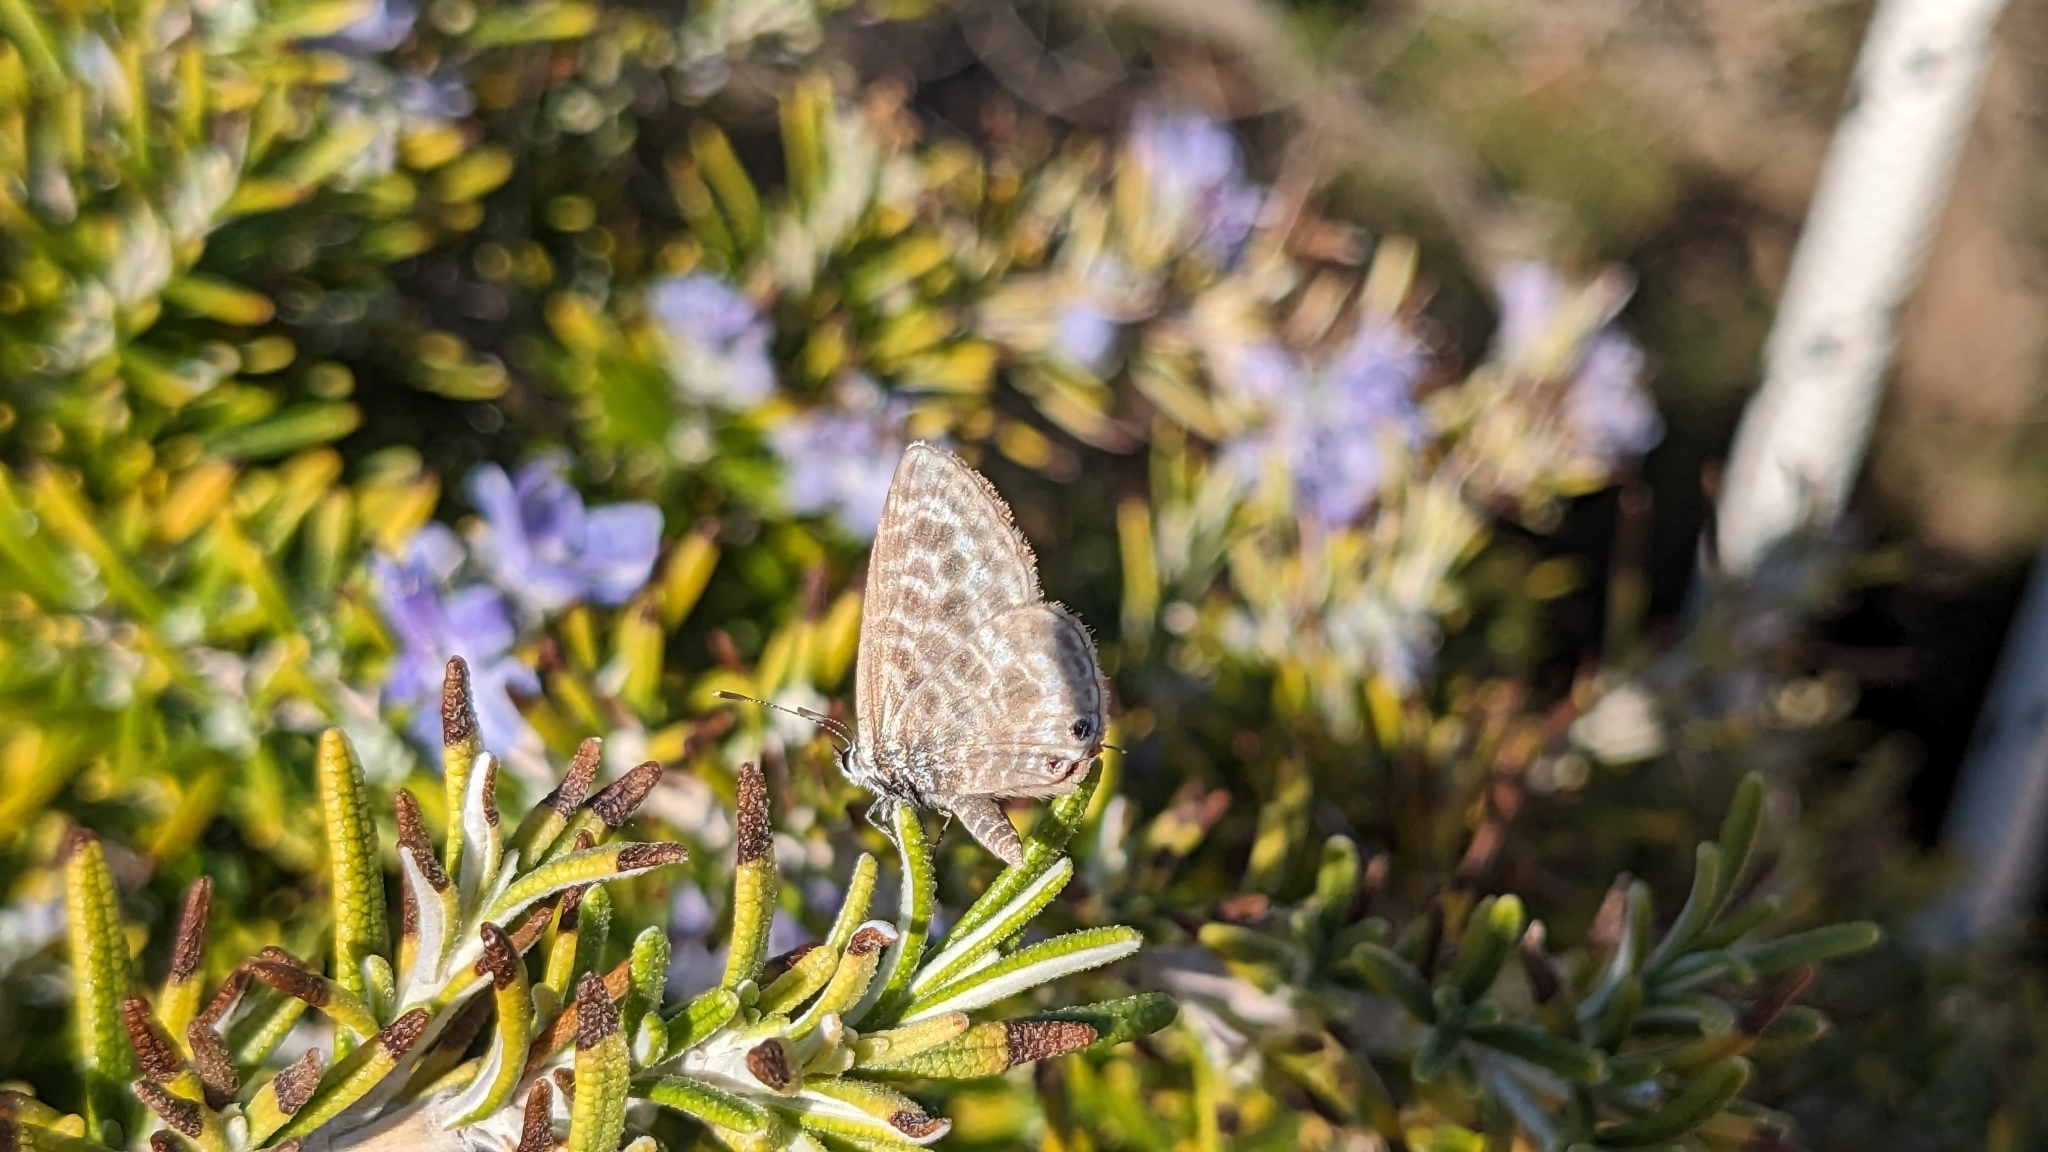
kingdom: Animalia
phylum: Arthropoda
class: Insecta
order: Lepidoptera
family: Lycaenidae
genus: Leptotes
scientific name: Leptotes pirithous
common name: Lang's short-tailed blue
